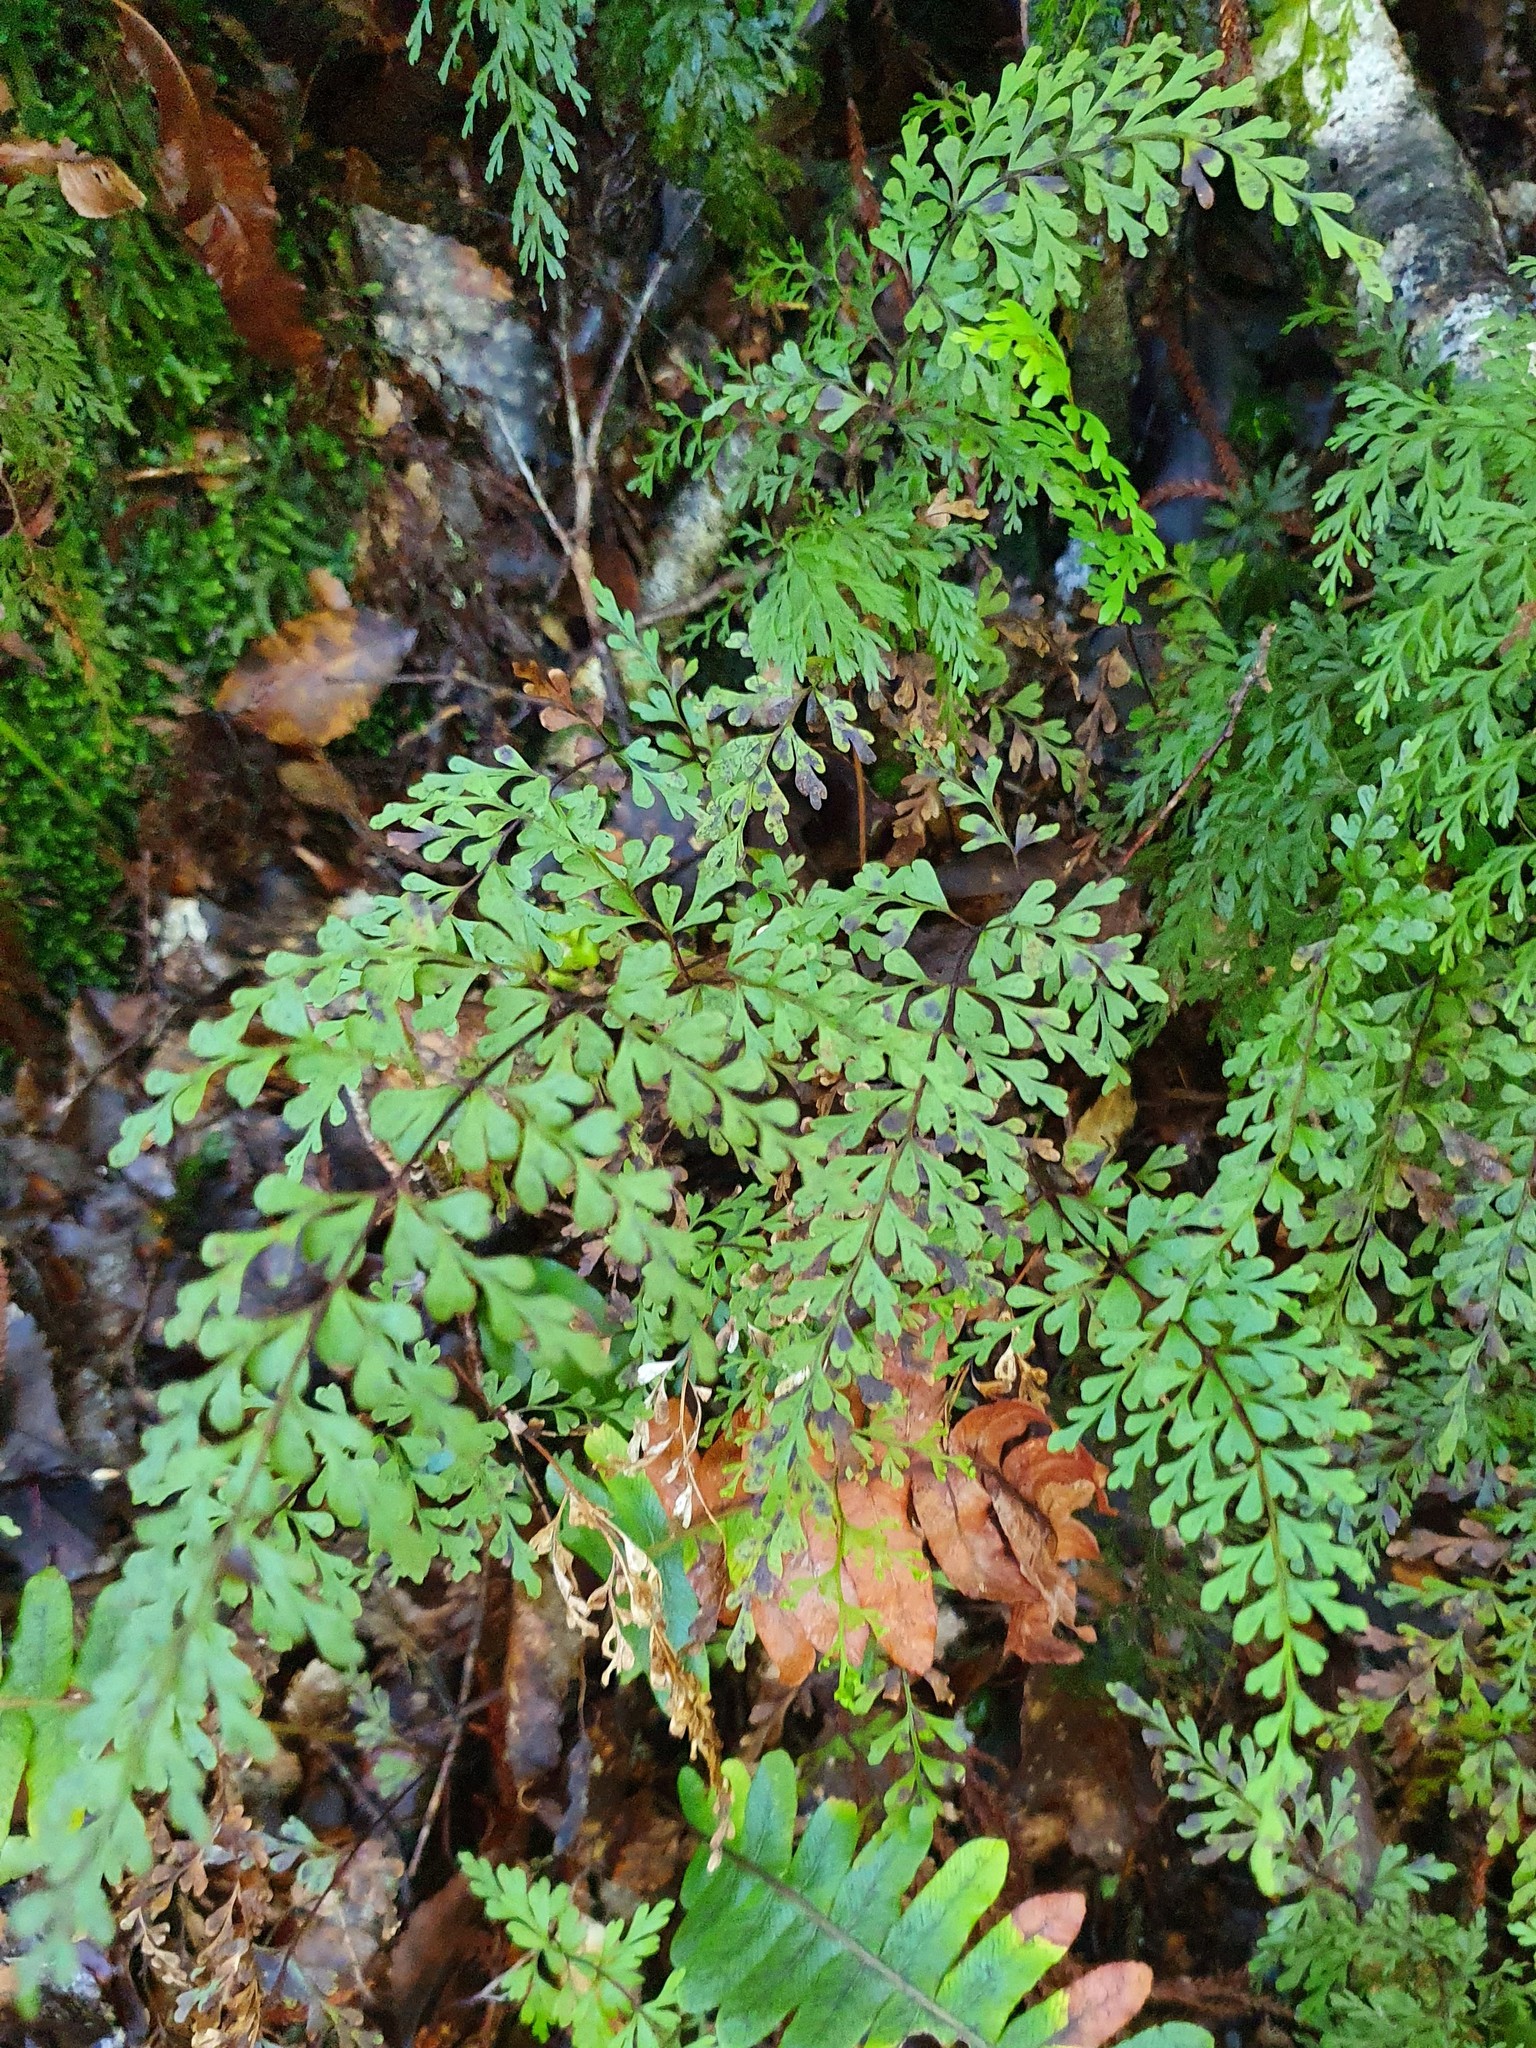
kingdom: Plantae
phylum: Tracheophyta
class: Polypodiopsida
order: Polypodiales
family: Lindsaeaceae
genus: Lindsaea
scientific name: Lindsaea trichomanoides
